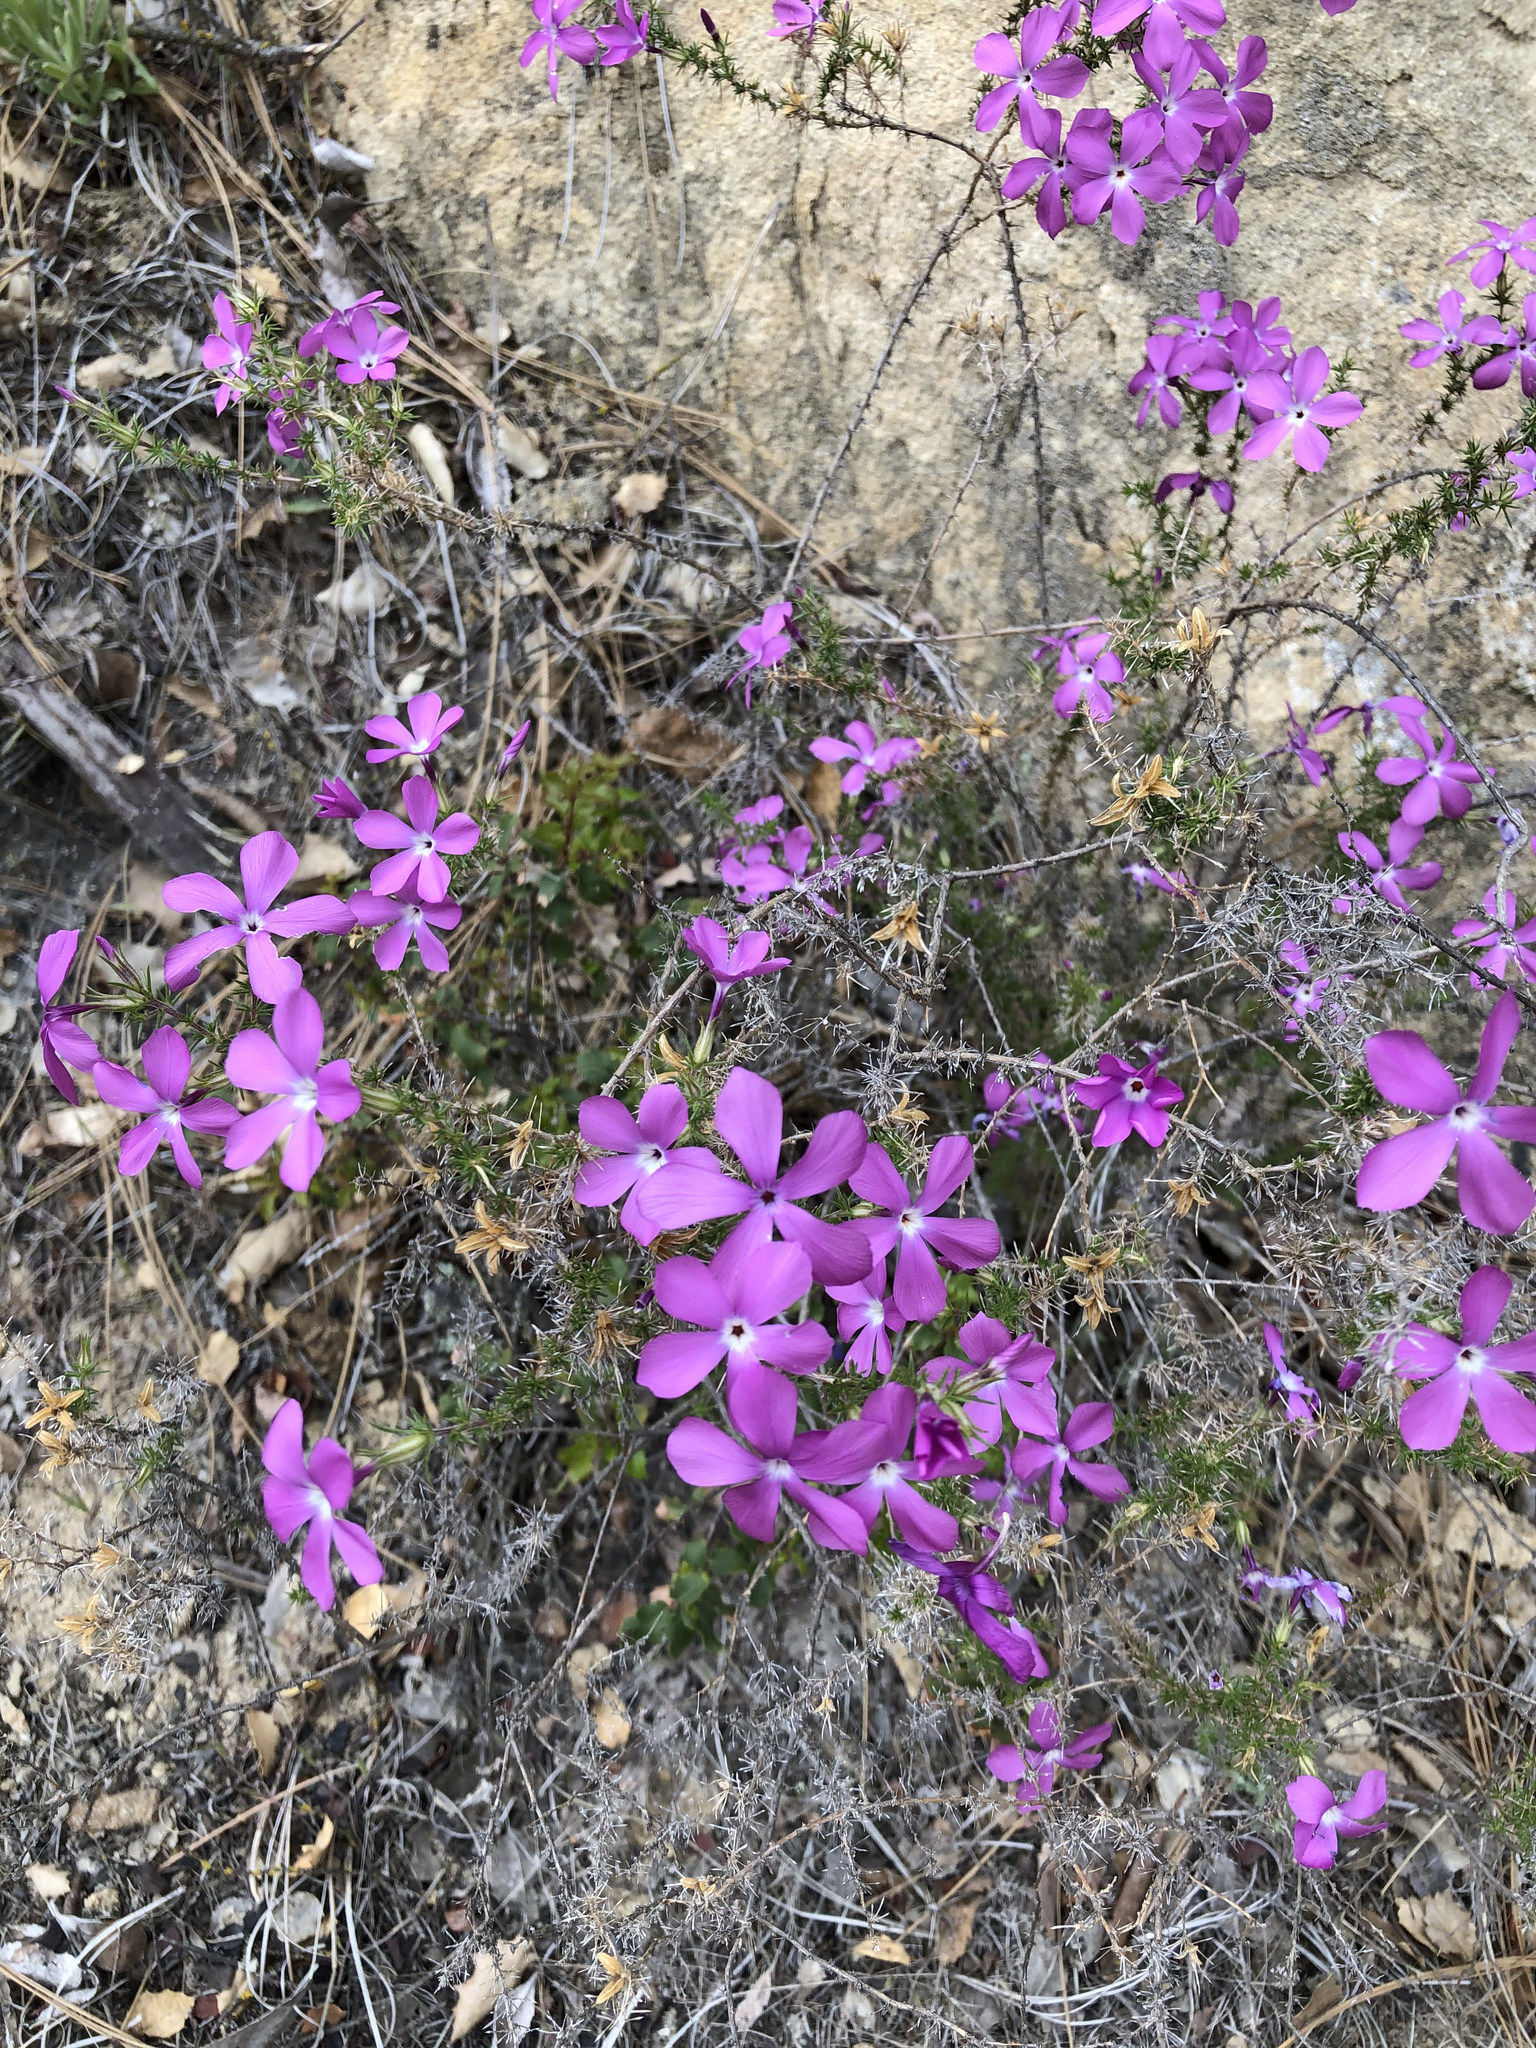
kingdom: Plantae
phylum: Tracheophyta
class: Magnoliopsida
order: Ericales
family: Polemoniaceae
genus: Linanthus
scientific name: Linanthus californicus
